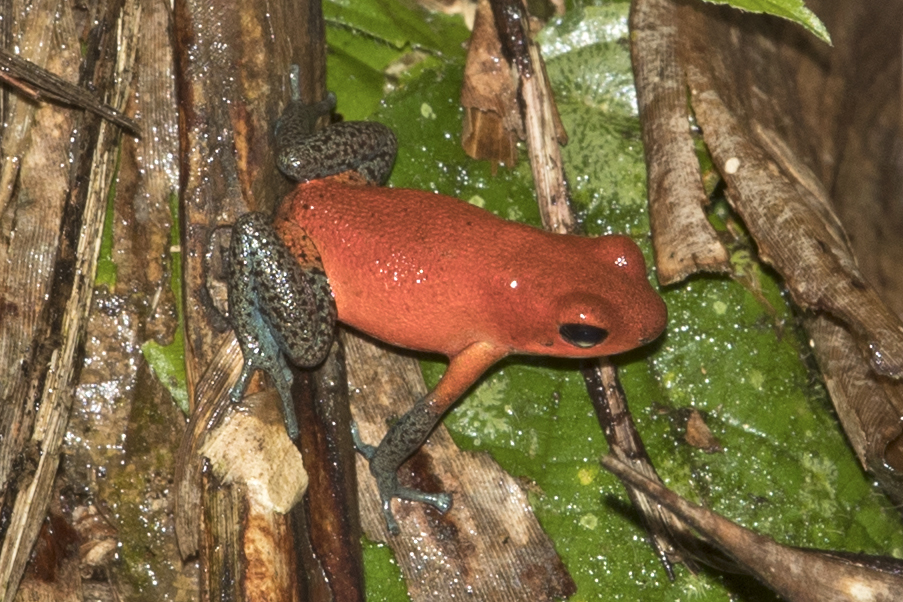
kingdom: Animalia
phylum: Chordata
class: Amphibia
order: Anura
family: Dendrobatidae
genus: Oophaga
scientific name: Oophaga pumilio
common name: Flaming poison frog
